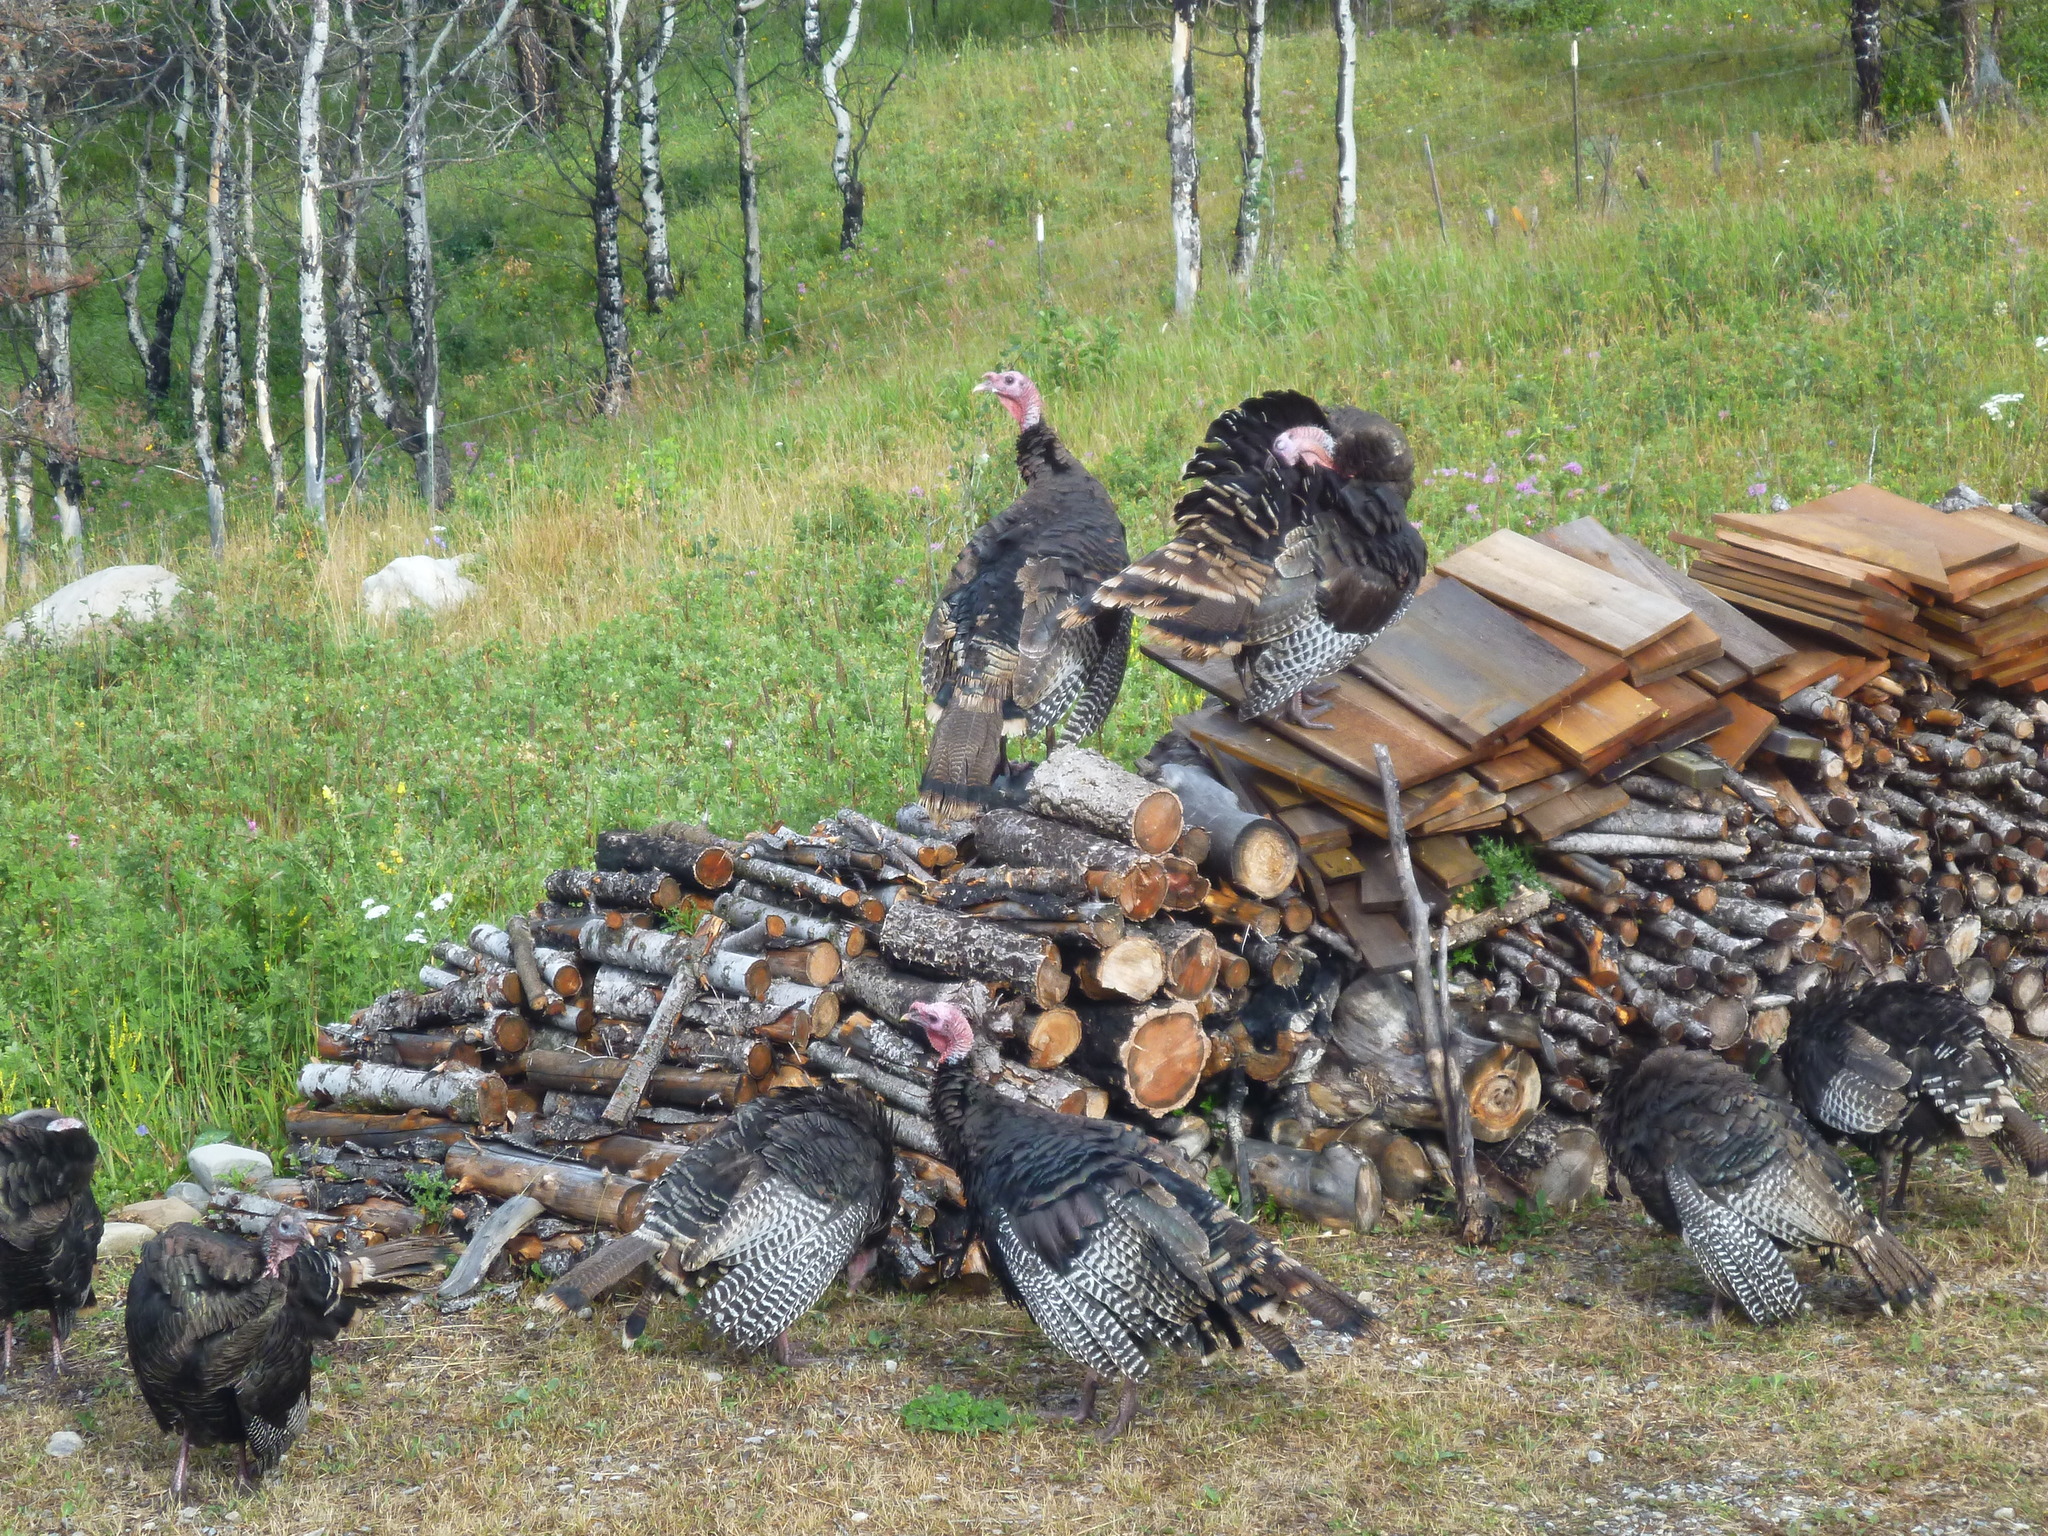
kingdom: Animalia
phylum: Chordata
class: Aves
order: Galliformes
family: Phasianidae
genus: Meleagris
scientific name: Meleagris gallopavo
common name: Wild turkey
